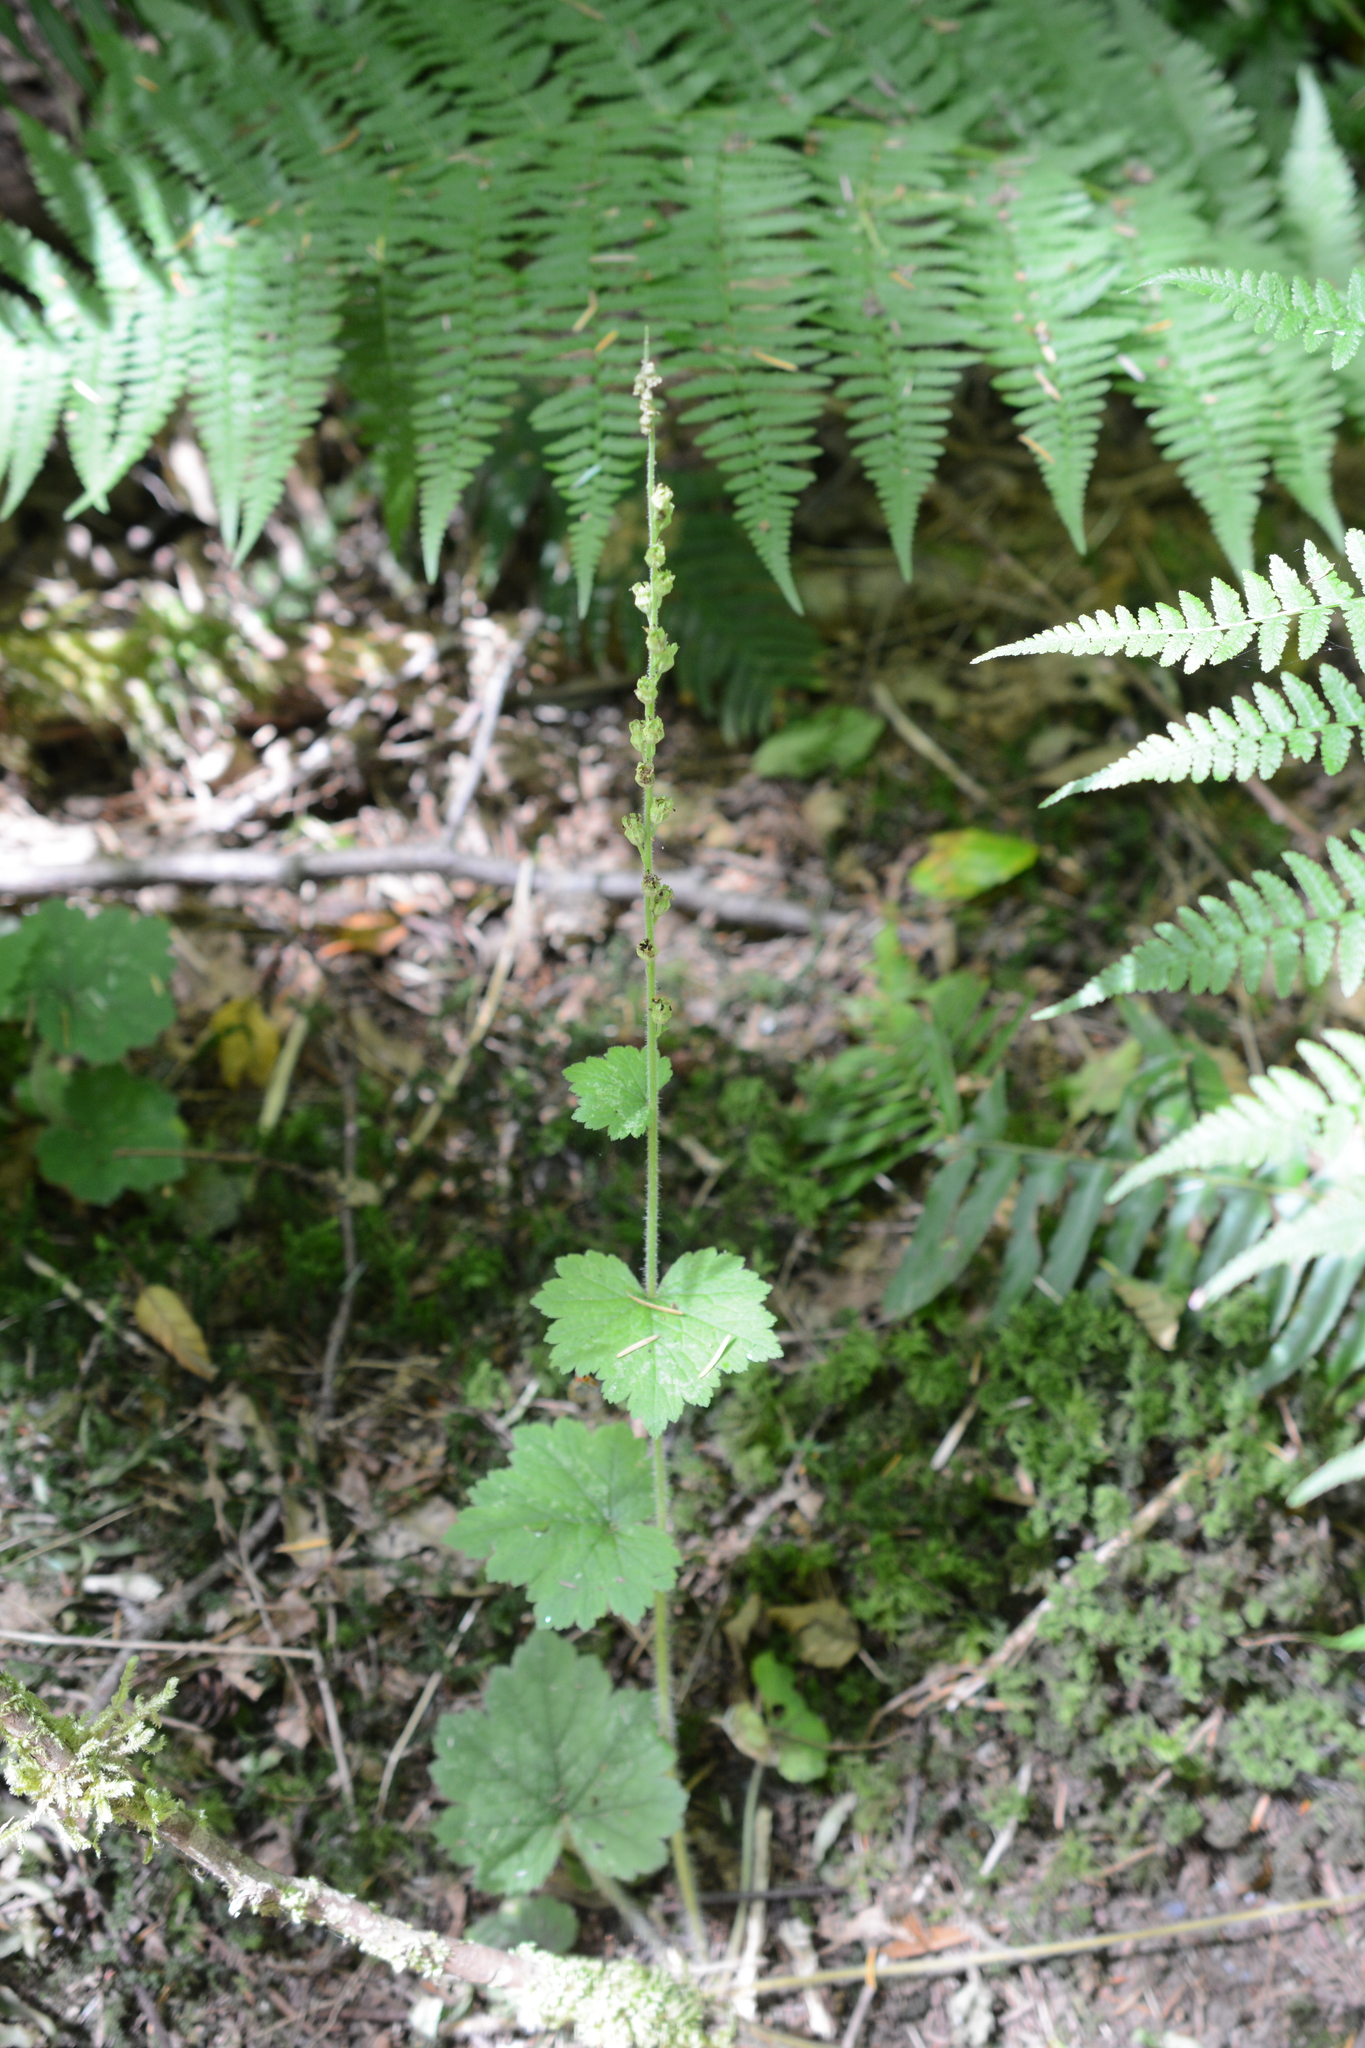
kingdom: Plantae
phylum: Tracheophyta
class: Magnoliopsida
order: Saxifragales
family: Saxifragaceae
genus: Tellima
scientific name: Tellima grandiflora
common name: Fringecups
